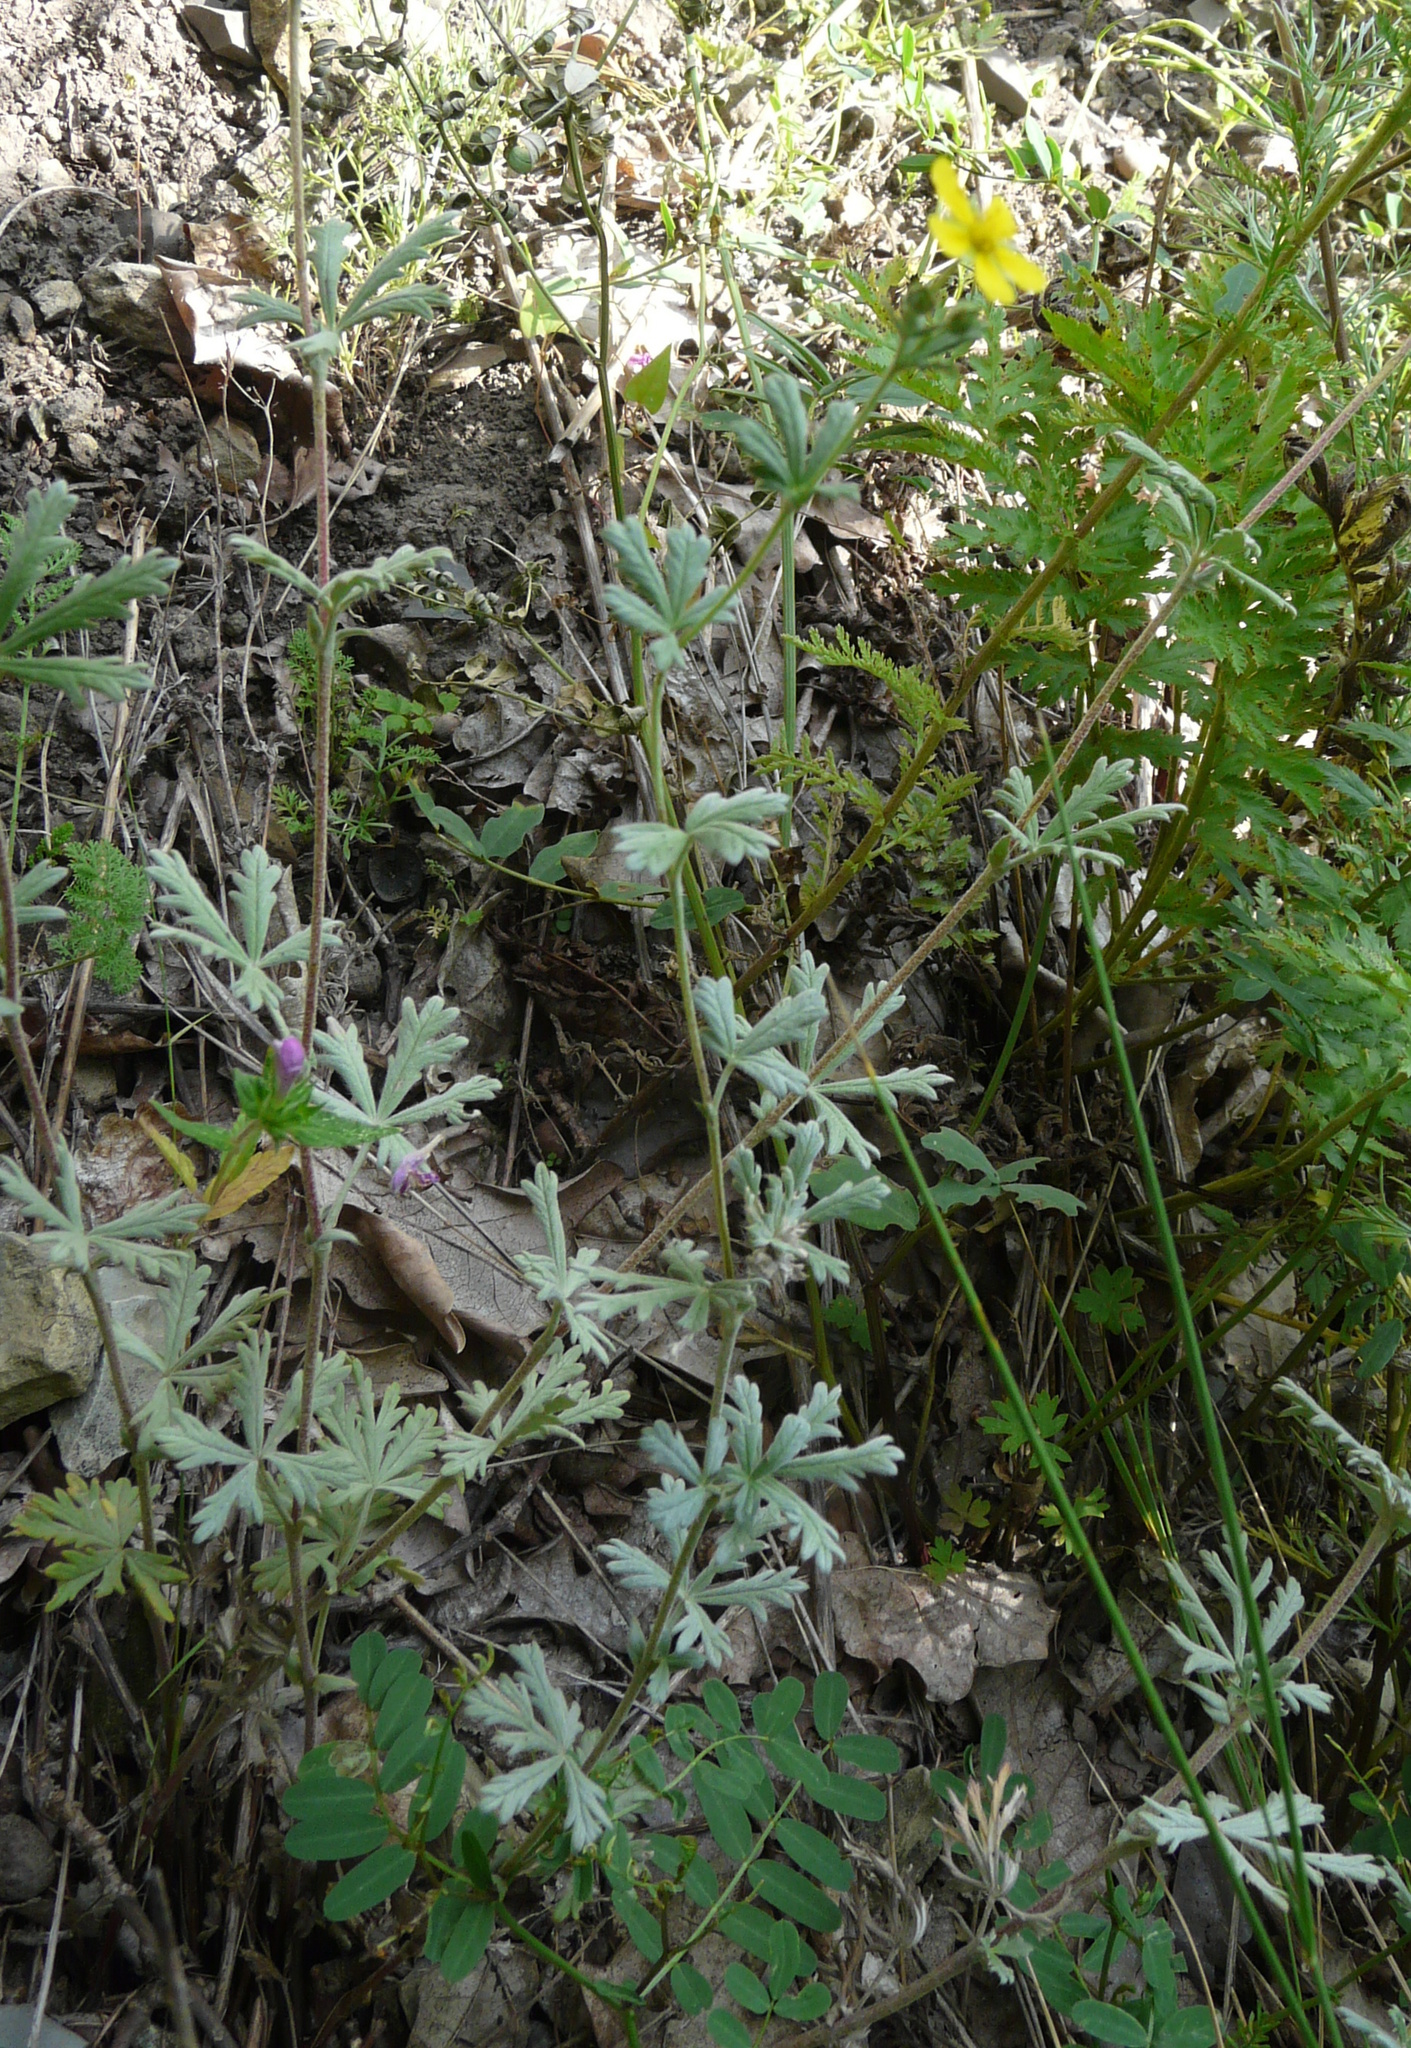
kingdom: Plantae
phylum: Tracheophyta
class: Magnoliopsida
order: Rosales
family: Rosaceae
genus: Potentilla
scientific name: Potentilla argentea
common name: Hoary cinquefoil
